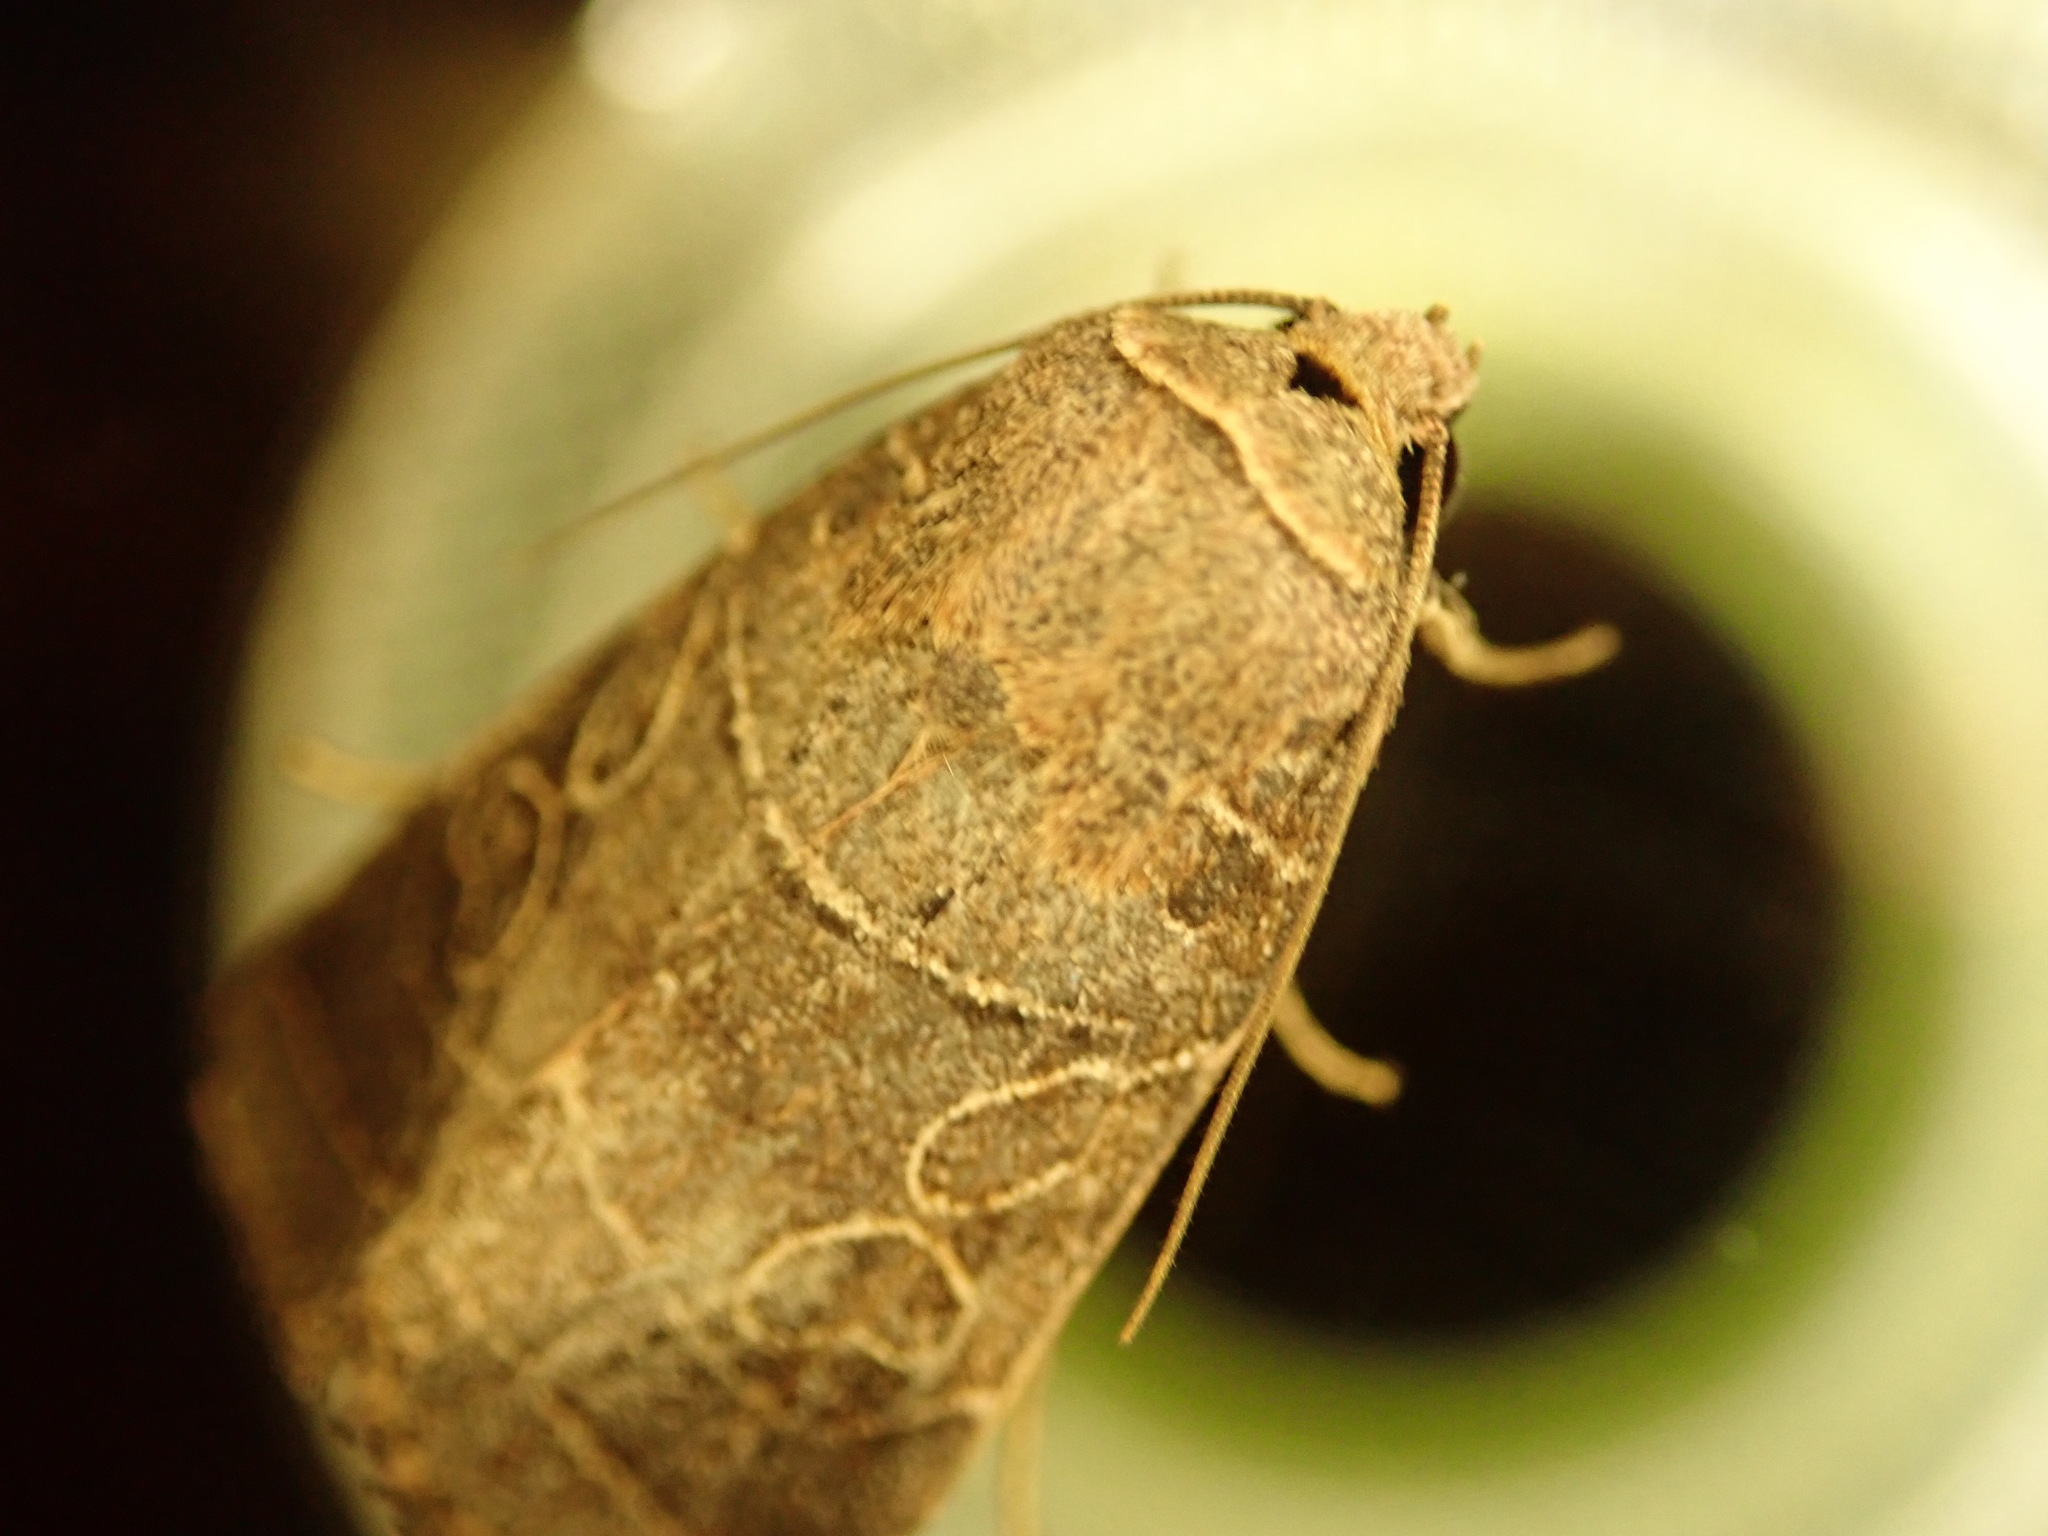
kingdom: Animalia
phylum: Arthropoda
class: Insecta
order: Lepidoptera
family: Noctuidae
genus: Orthodes
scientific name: Orthodes majuscula
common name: Rustic quaker
